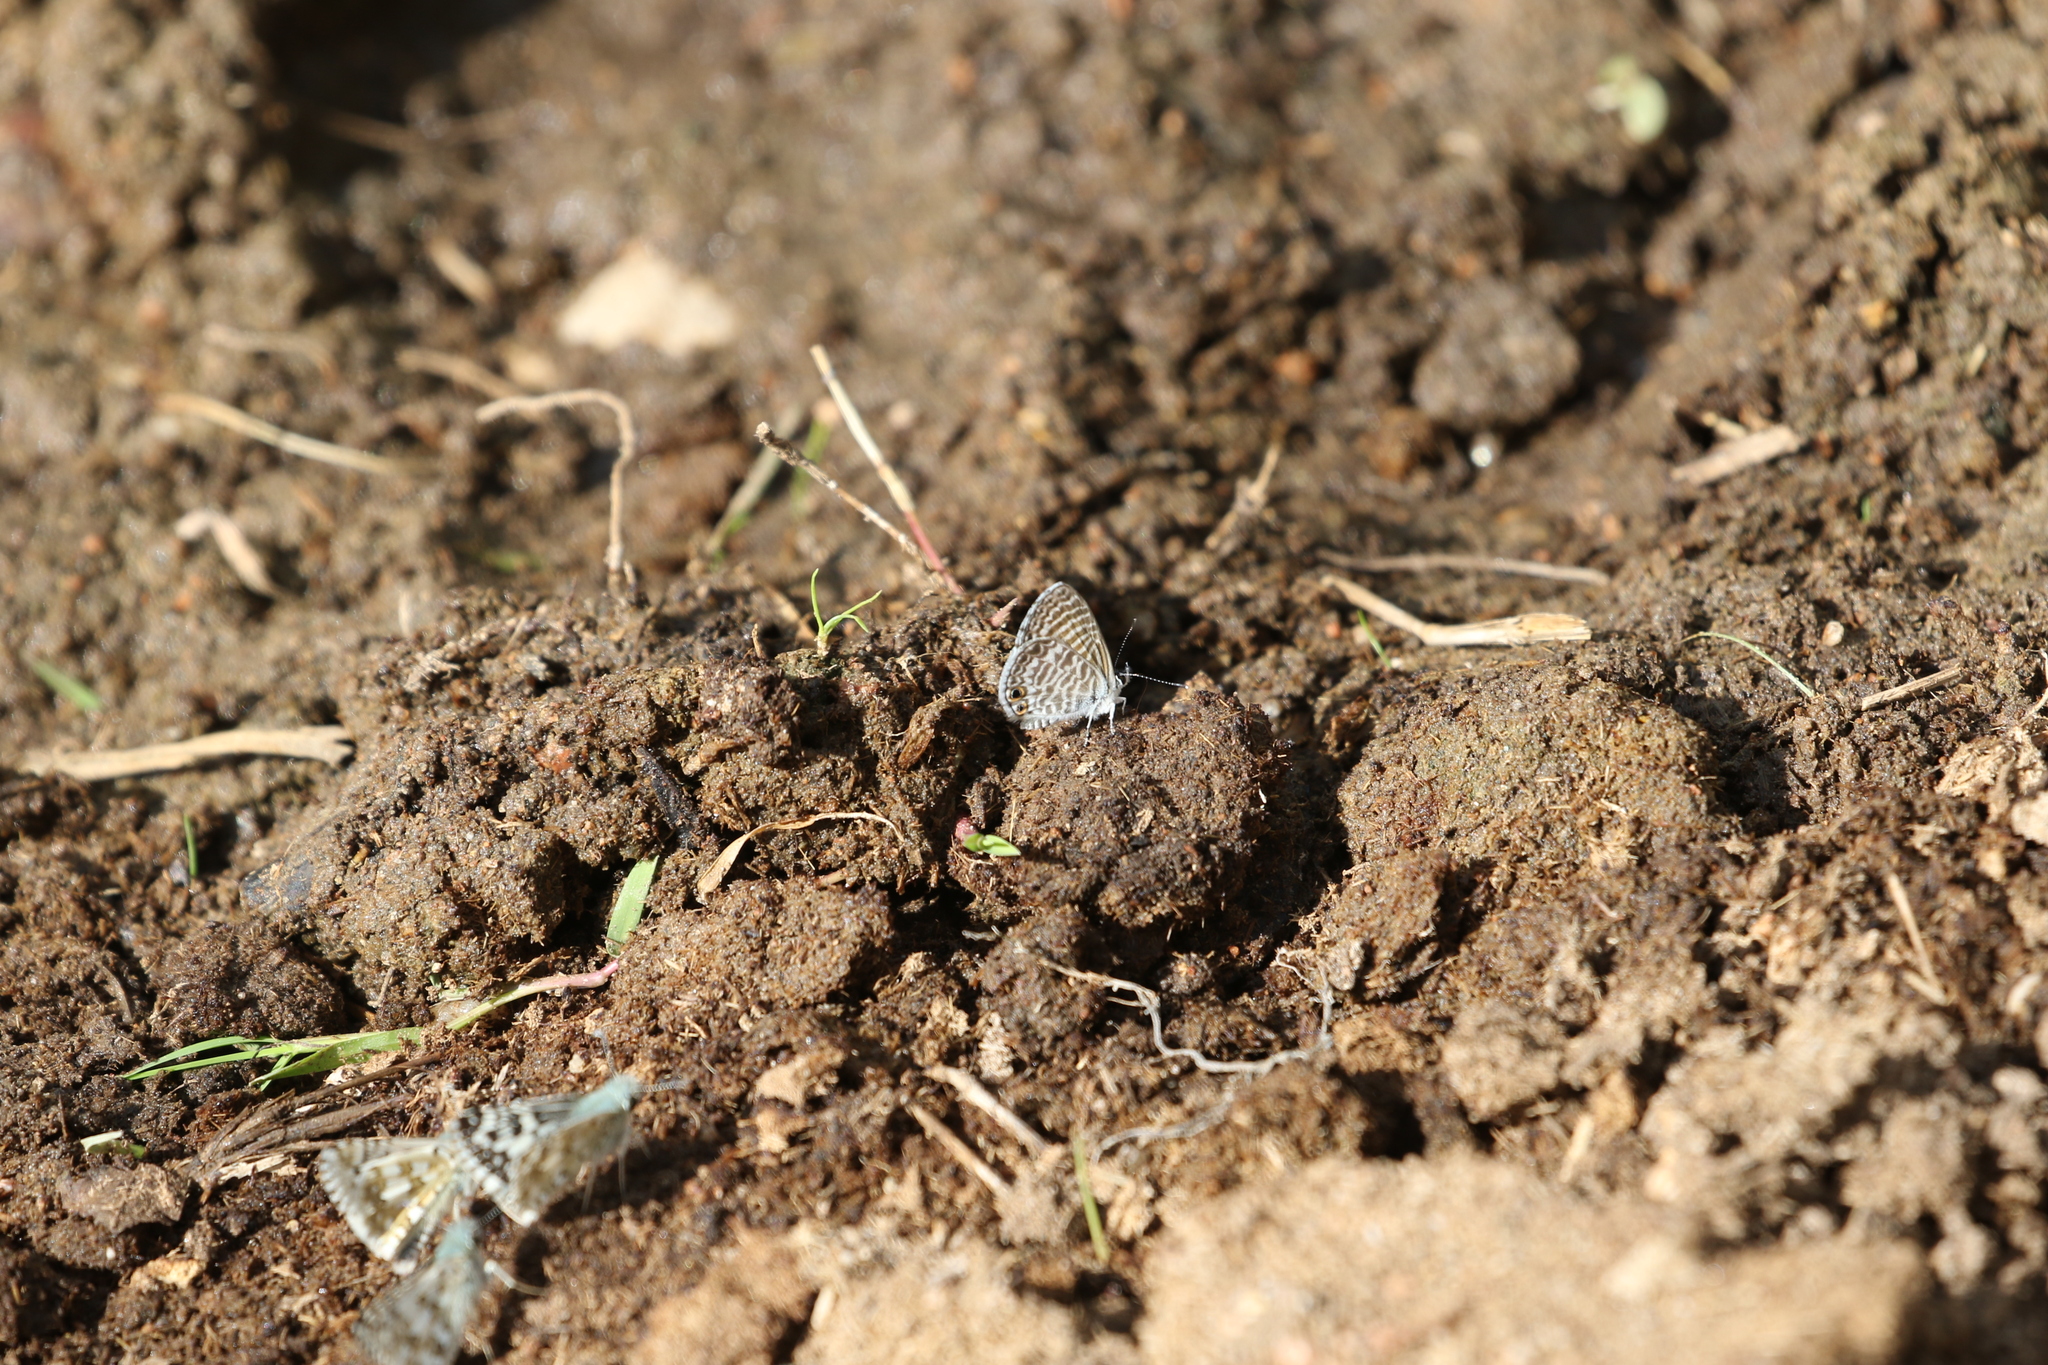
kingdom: Animalia
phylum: Arthropoda
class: Insecta
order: Lepidoptera
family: Lycaenidae
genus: Leptotes
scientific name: Leptotes marina
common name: Marine blue
